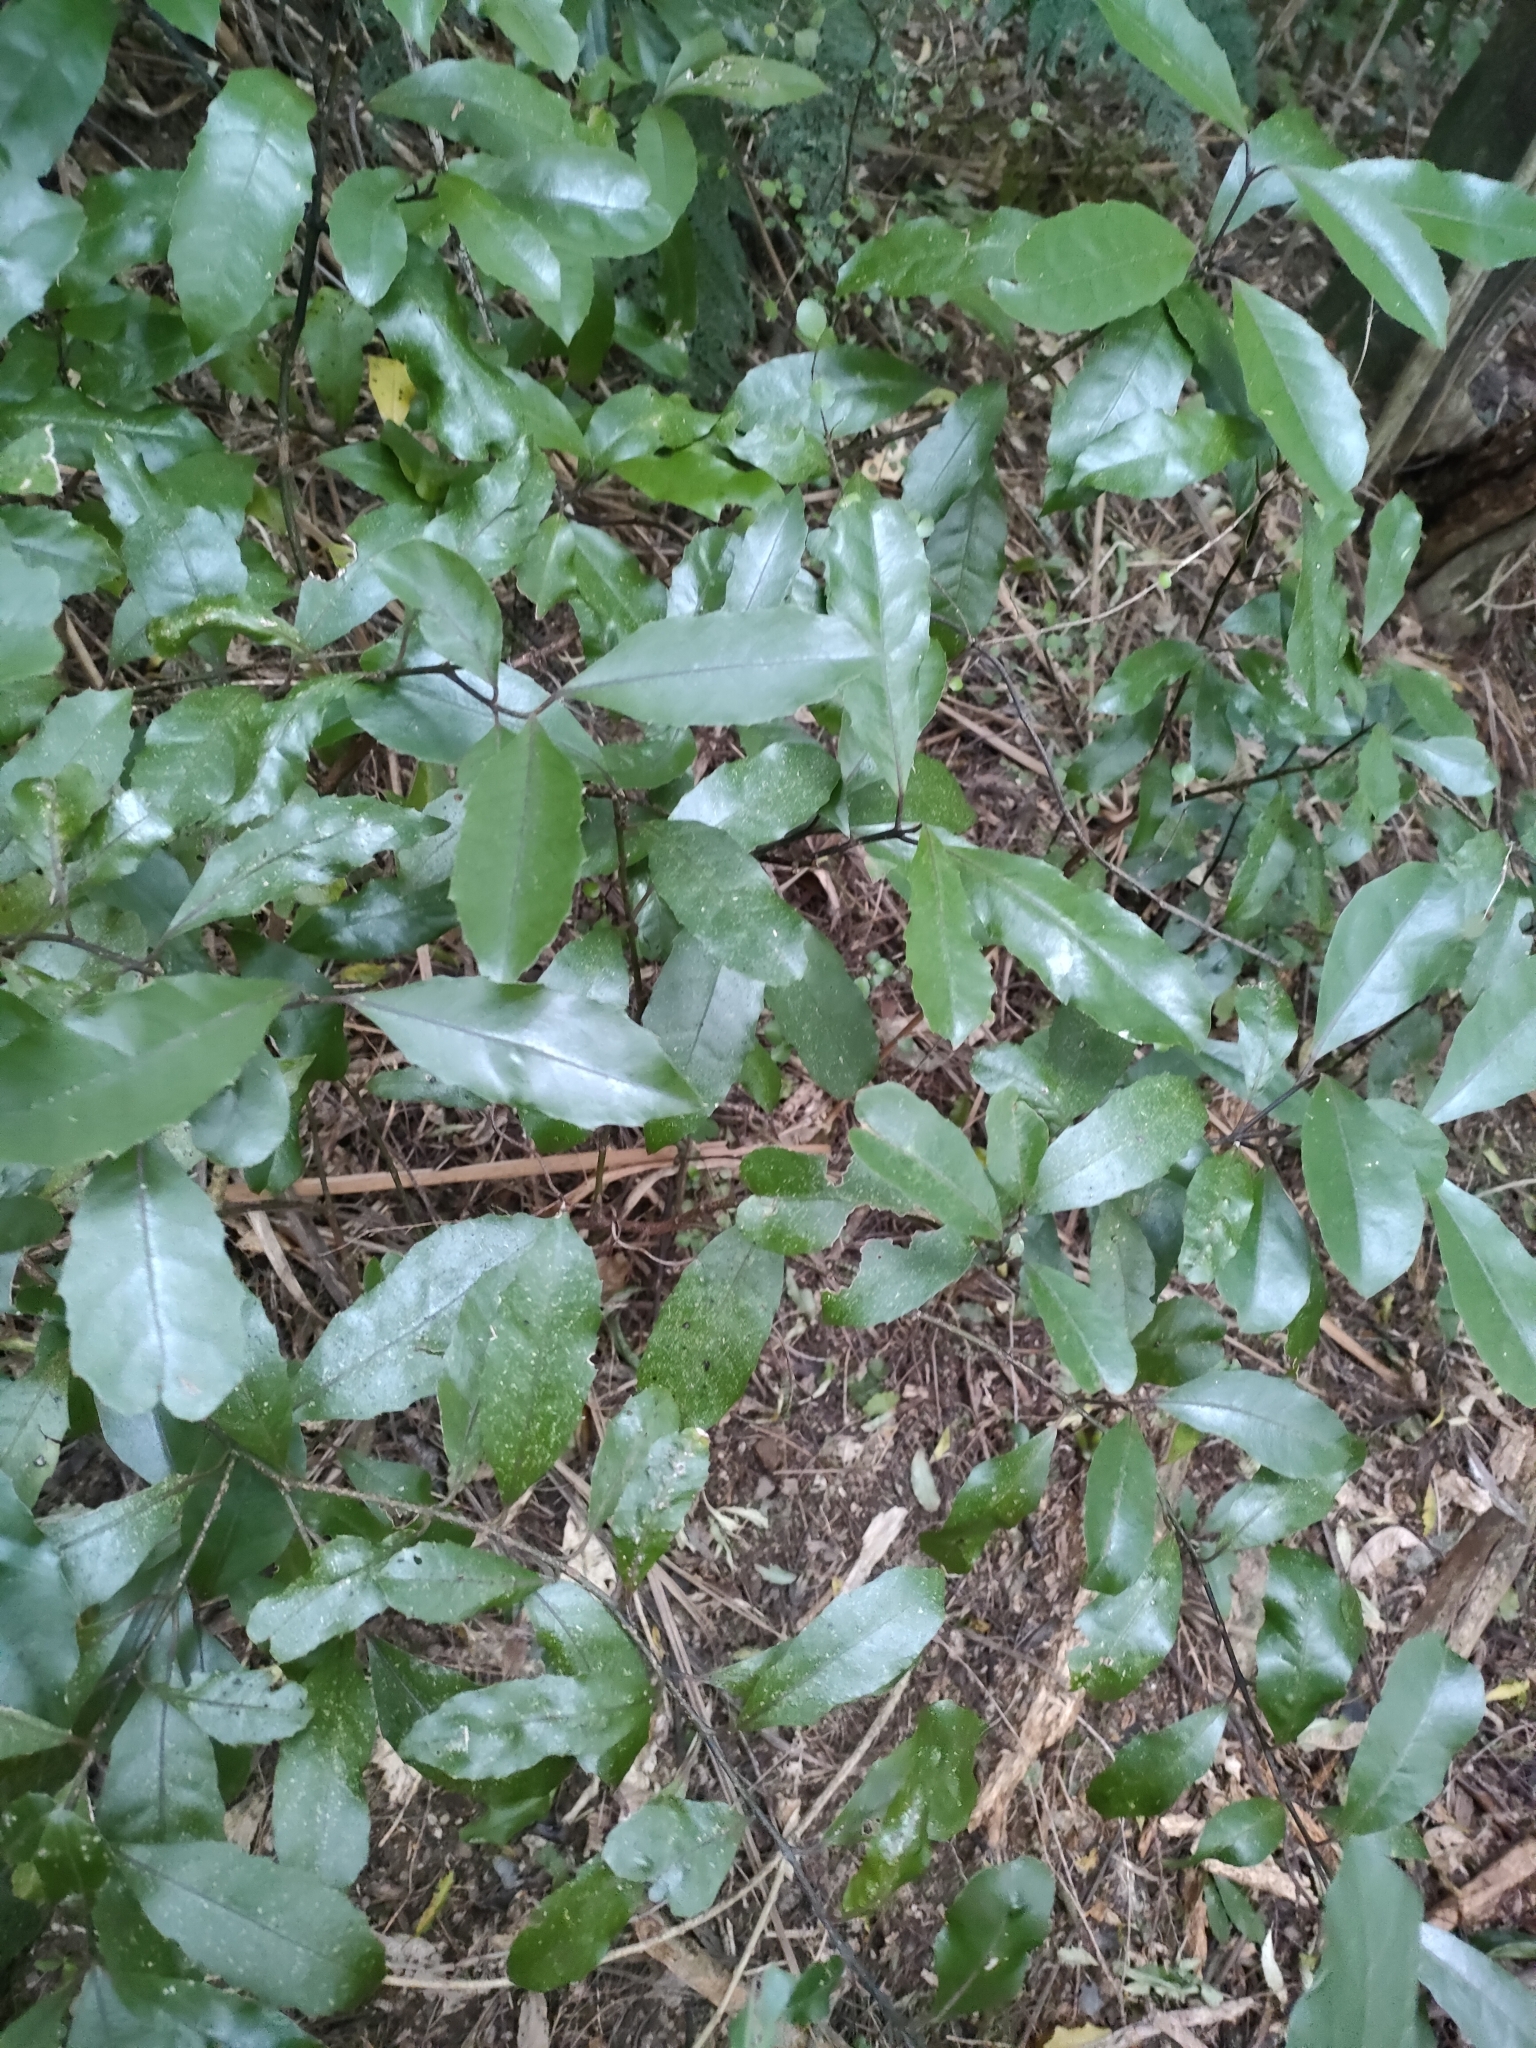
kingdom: Plantae
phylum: Tracheophyta
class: Magnoliopsida
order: Laurales
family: Monimiaceae
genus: Hedycarya
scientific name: Hedycarya arborea
